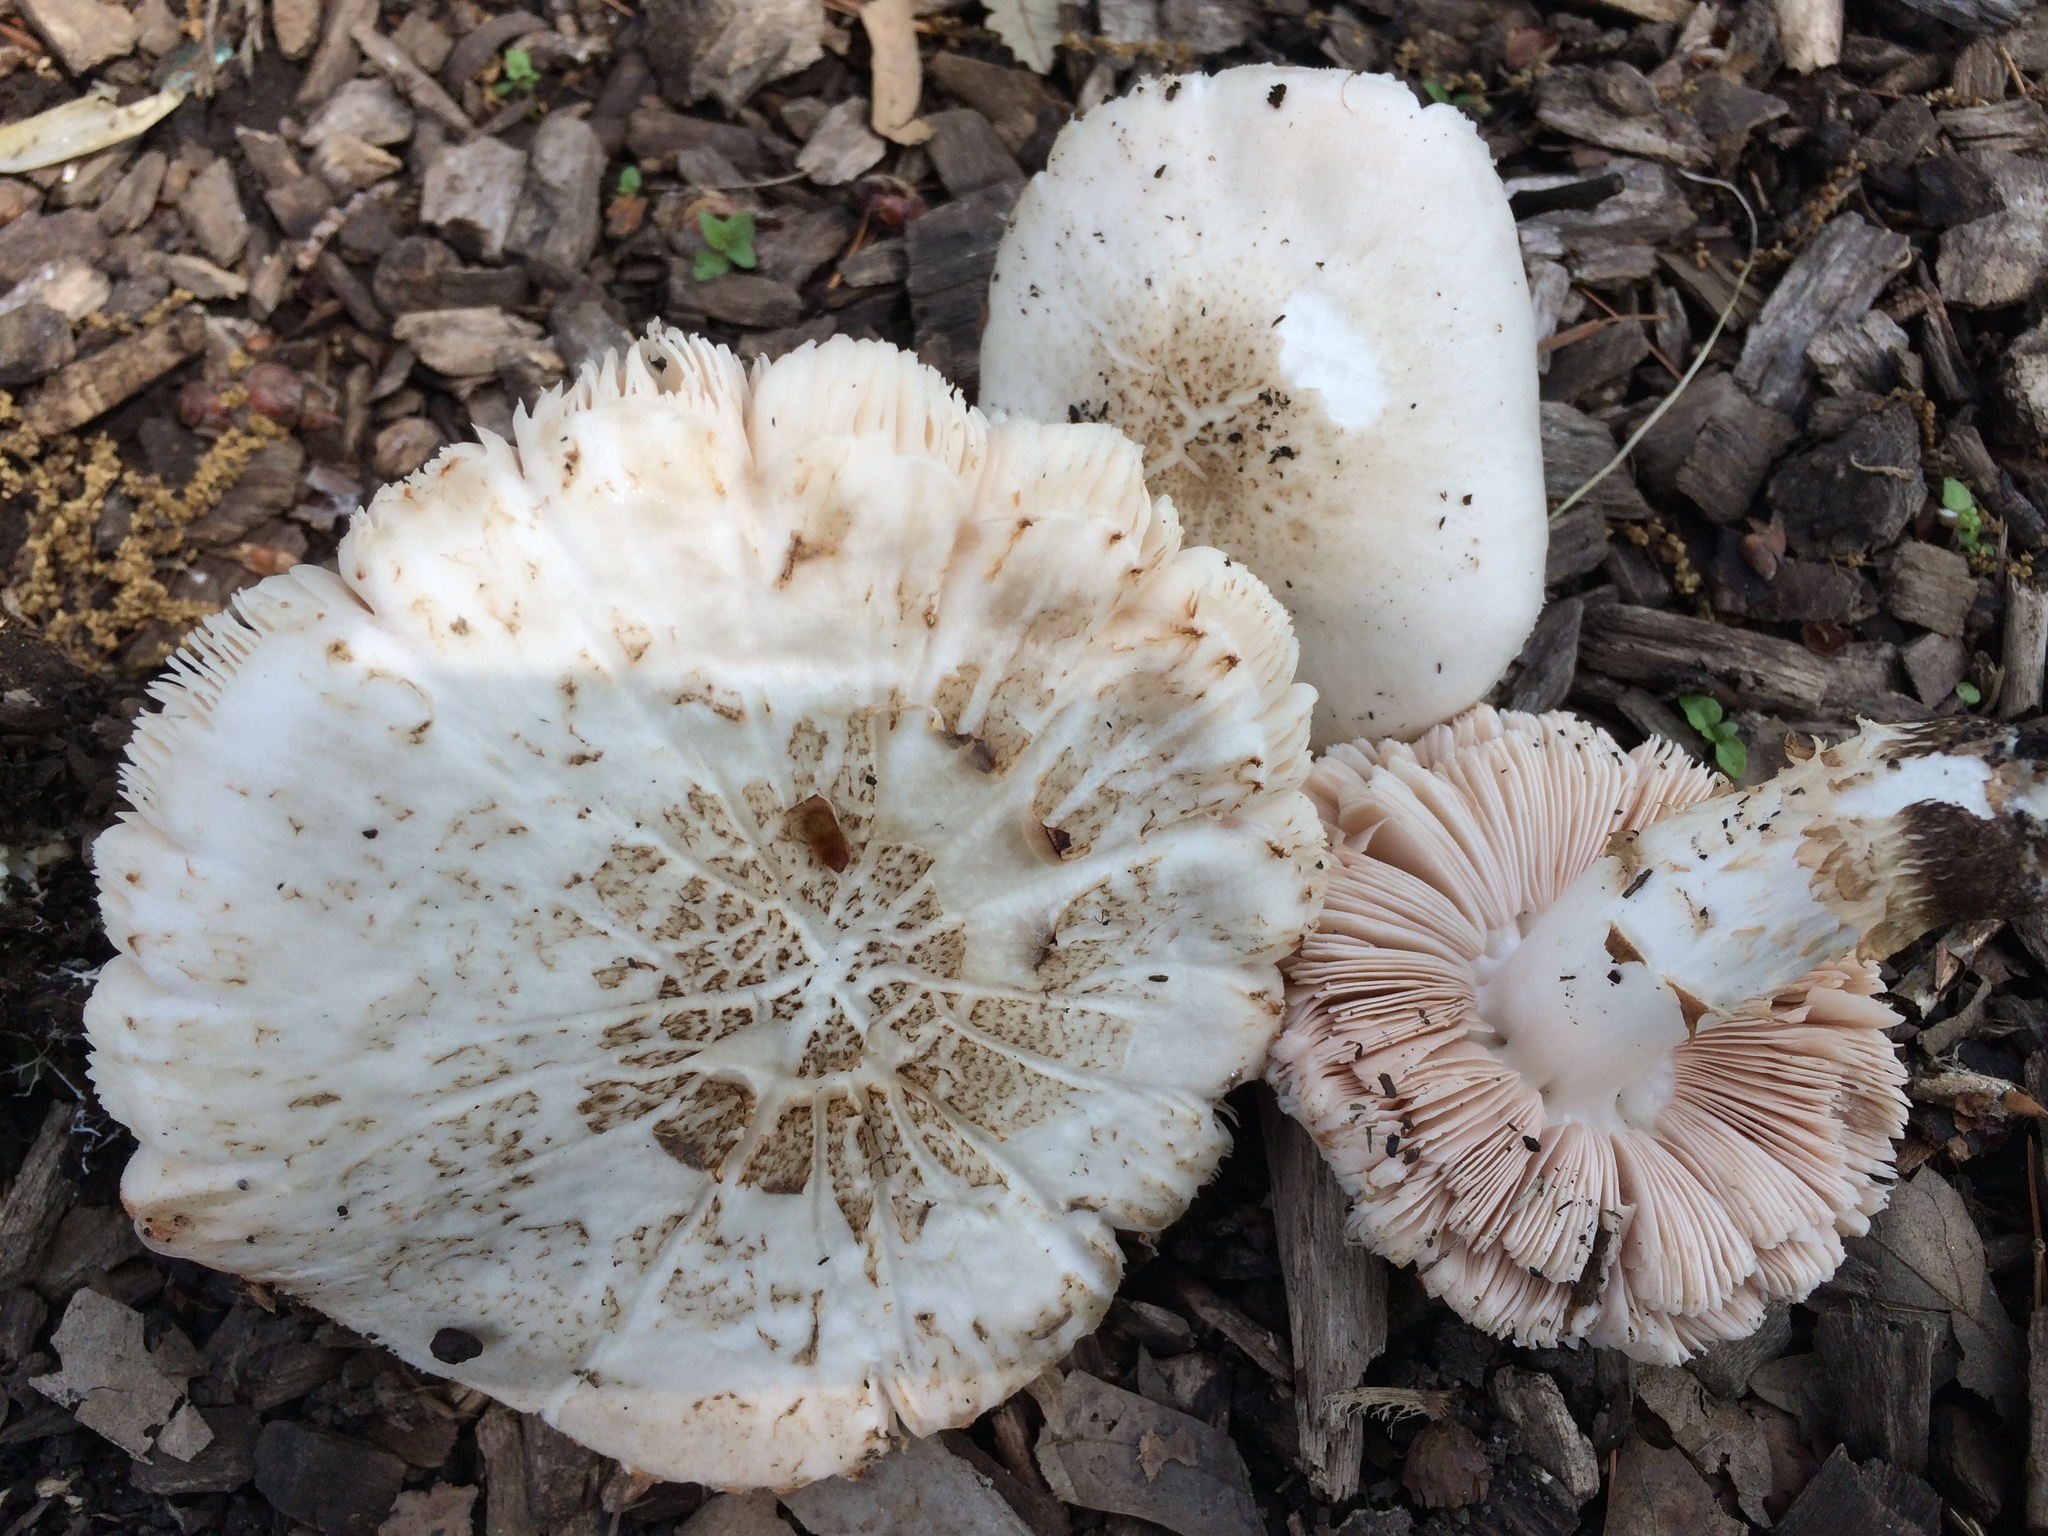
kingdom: Fungi
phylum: Basidiomycota
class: Agaricomycetes
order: Agaricales
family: Pluteaceae
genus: Pluteus
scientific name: Pluteus petasatus
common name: Scaly shield
